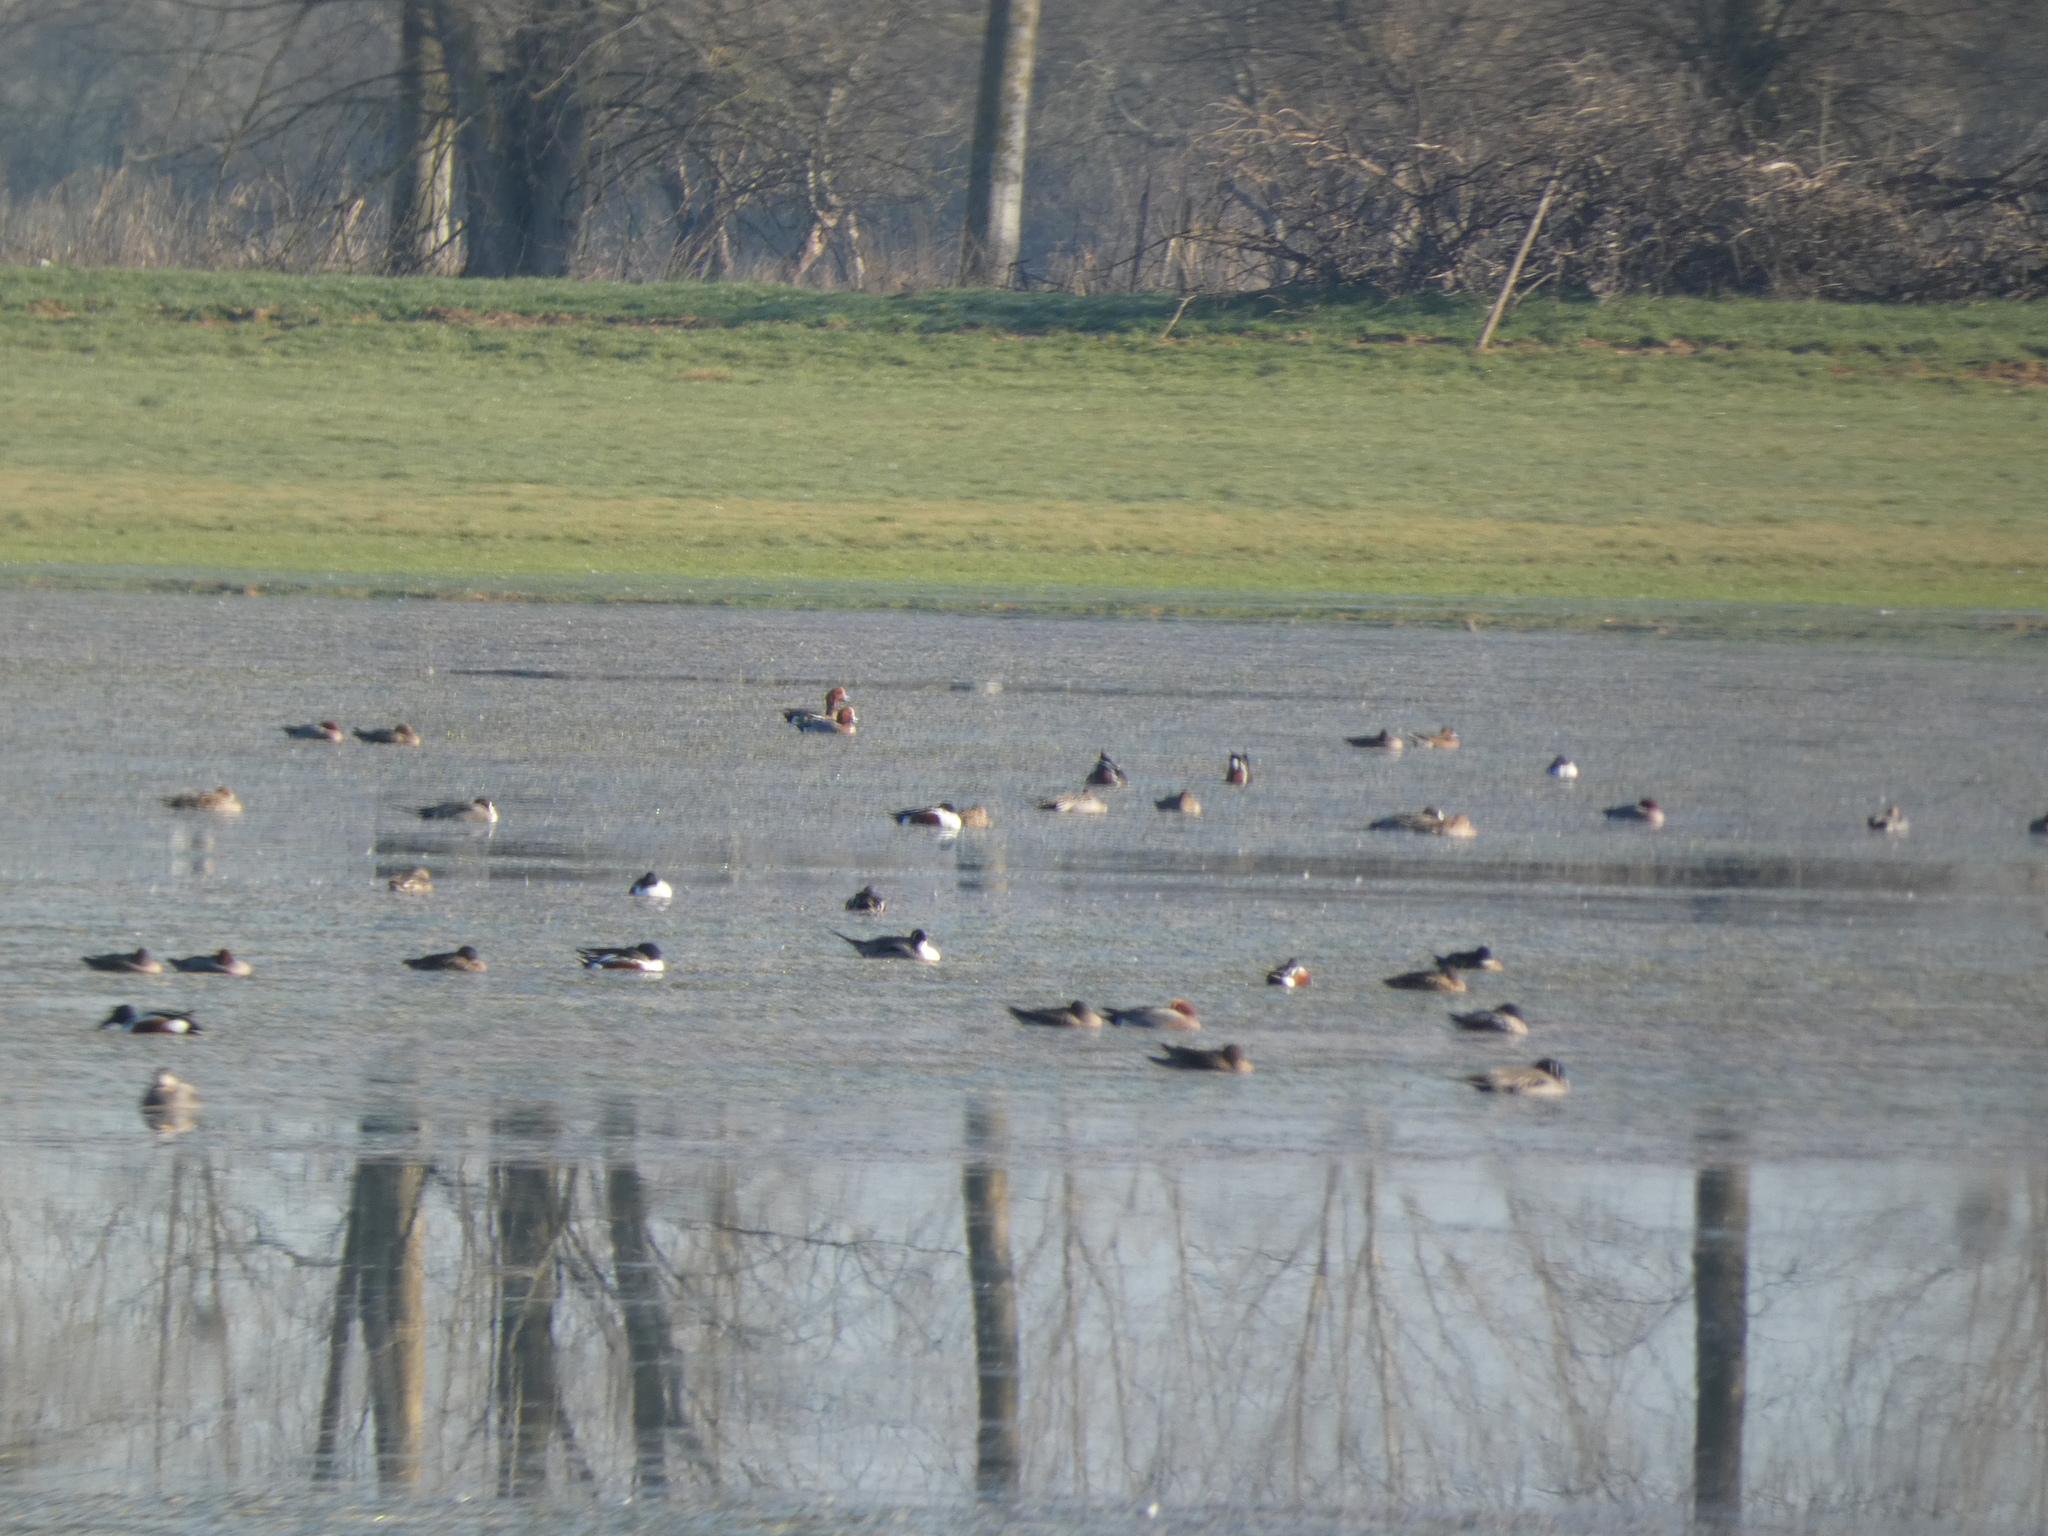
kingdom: Animalia
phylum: Chordata
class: Aves
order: Anseriformes
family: Anatidae
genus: Anas
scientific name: Anas acuta
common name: Northern pintail
